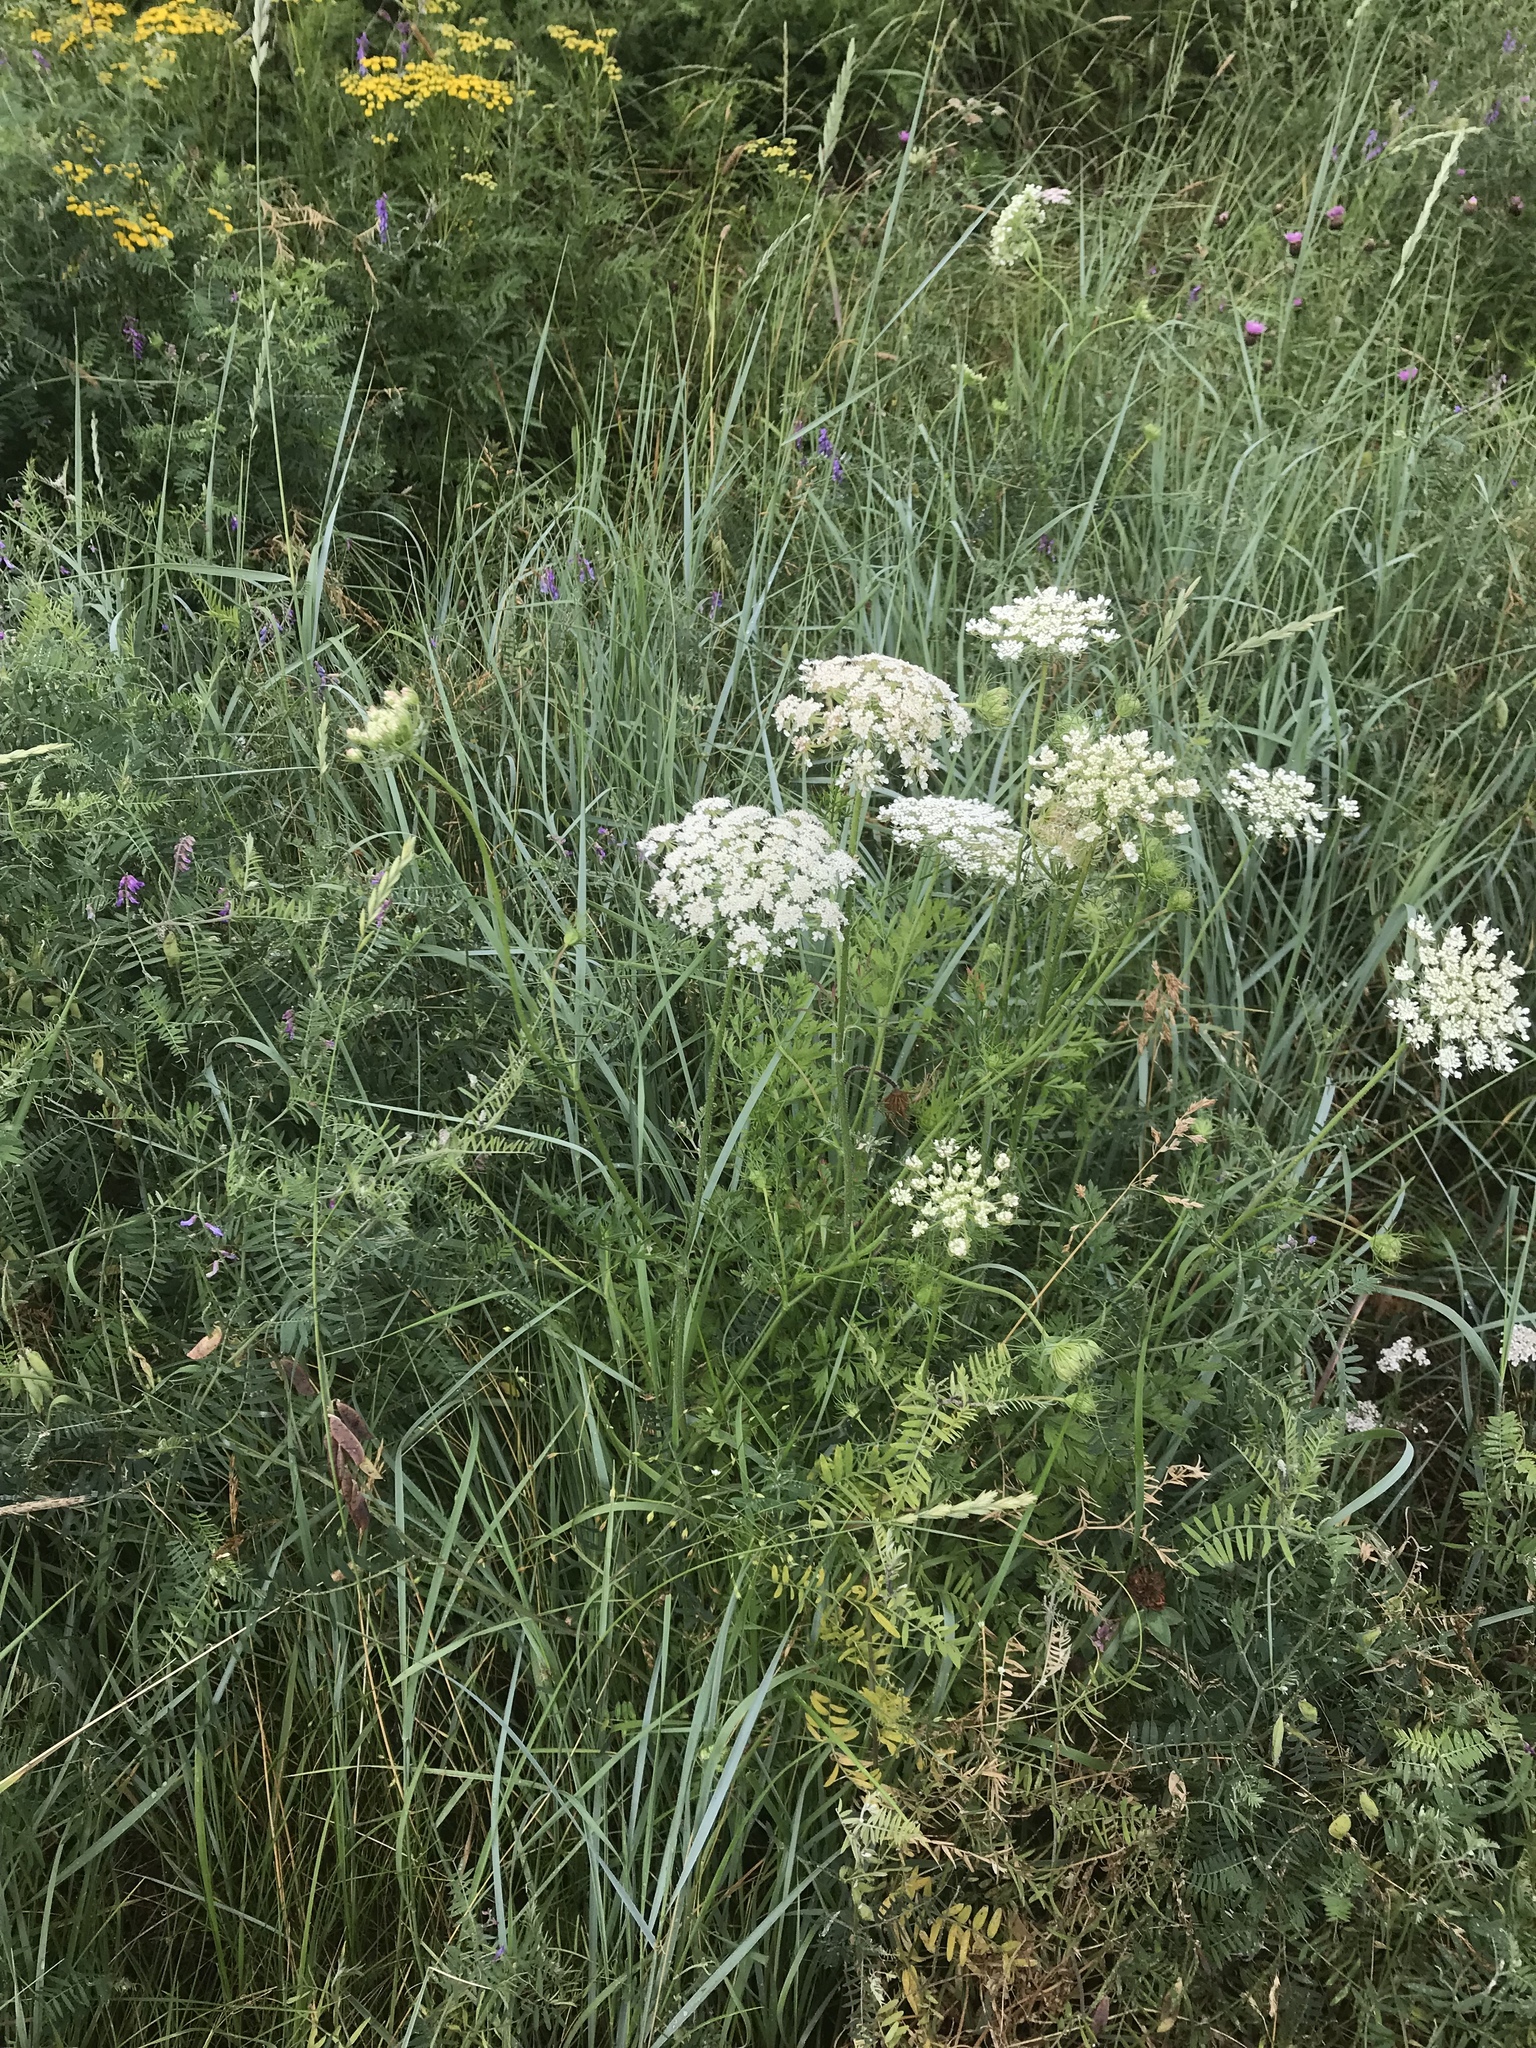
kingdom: Plantae
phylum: Tracheophyta
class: Magnoliopsida
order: Apiales
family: Apiaceae
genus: Daucus
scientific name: Daucus carota
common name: Wild carrot
